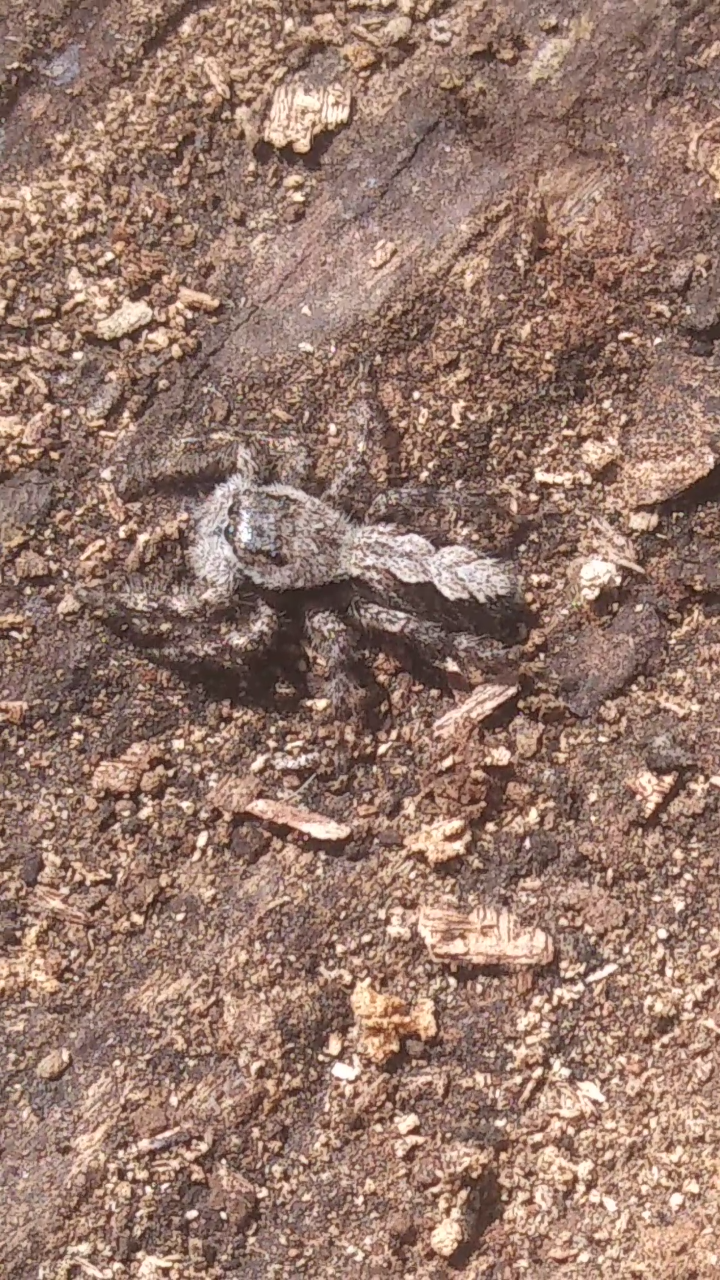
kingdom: Animalia
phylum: Arthropoda
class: Arachnida
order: Araneae
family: Salticidae
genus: Platycryptus
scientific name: Platycryptus undatus
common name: Tan jumping spider
